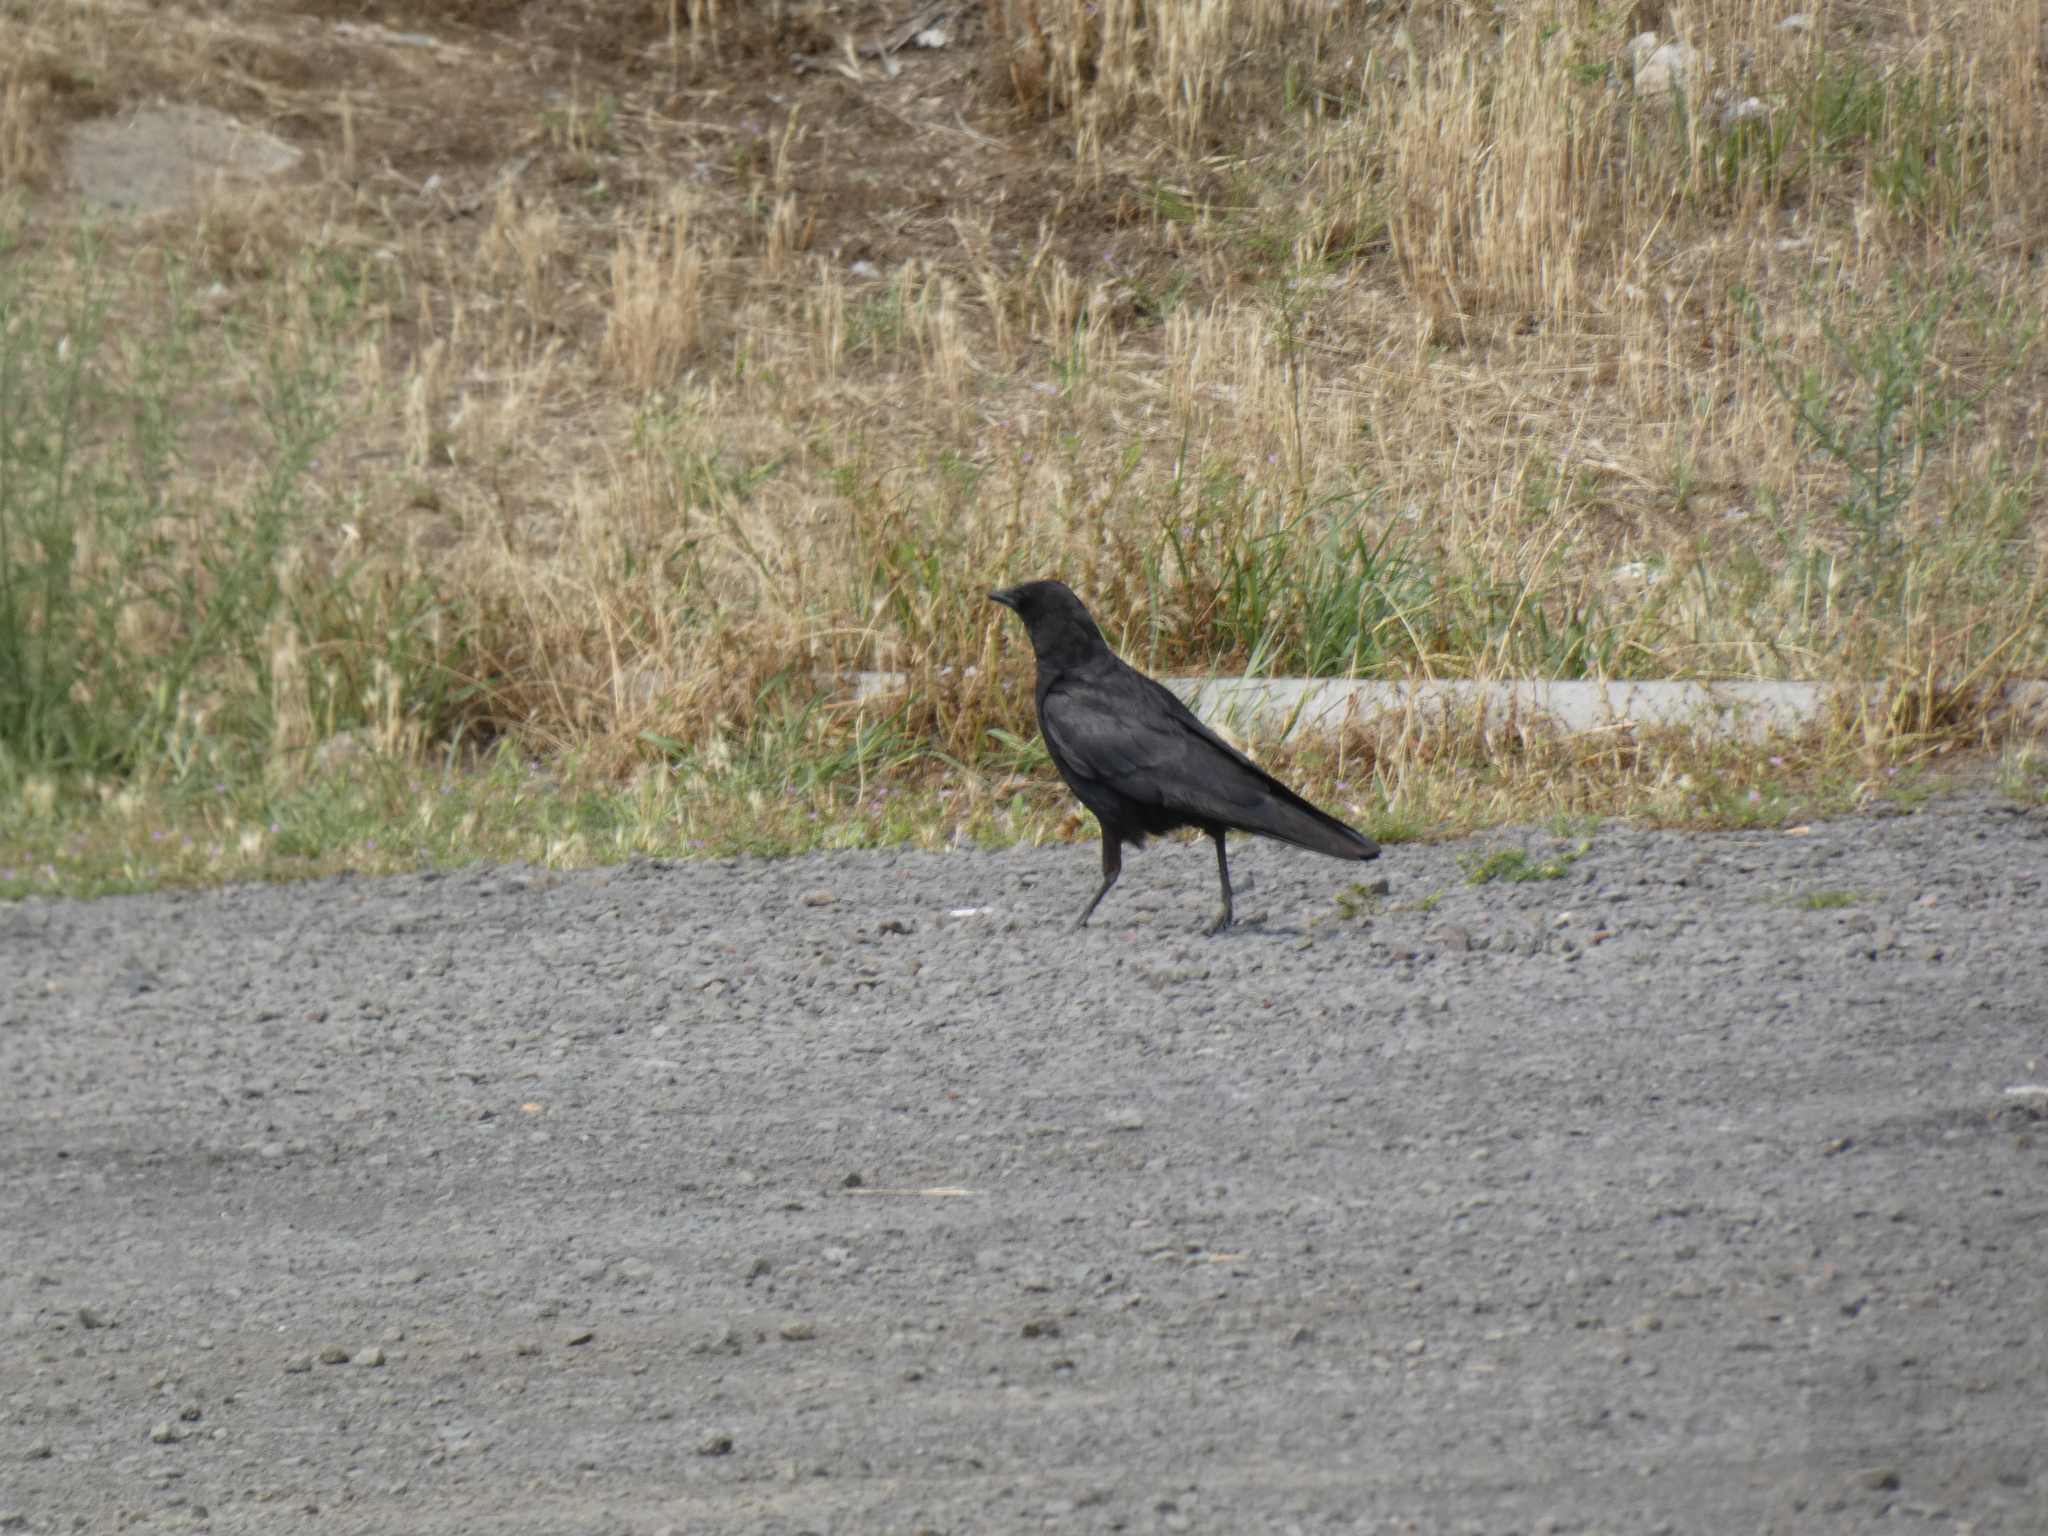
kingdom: Animalia
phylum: Chordata
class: Aves
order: Passeriformes
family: Corvidae
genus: Corvus
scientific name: Corvus brachyrhynchos
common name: American crow
